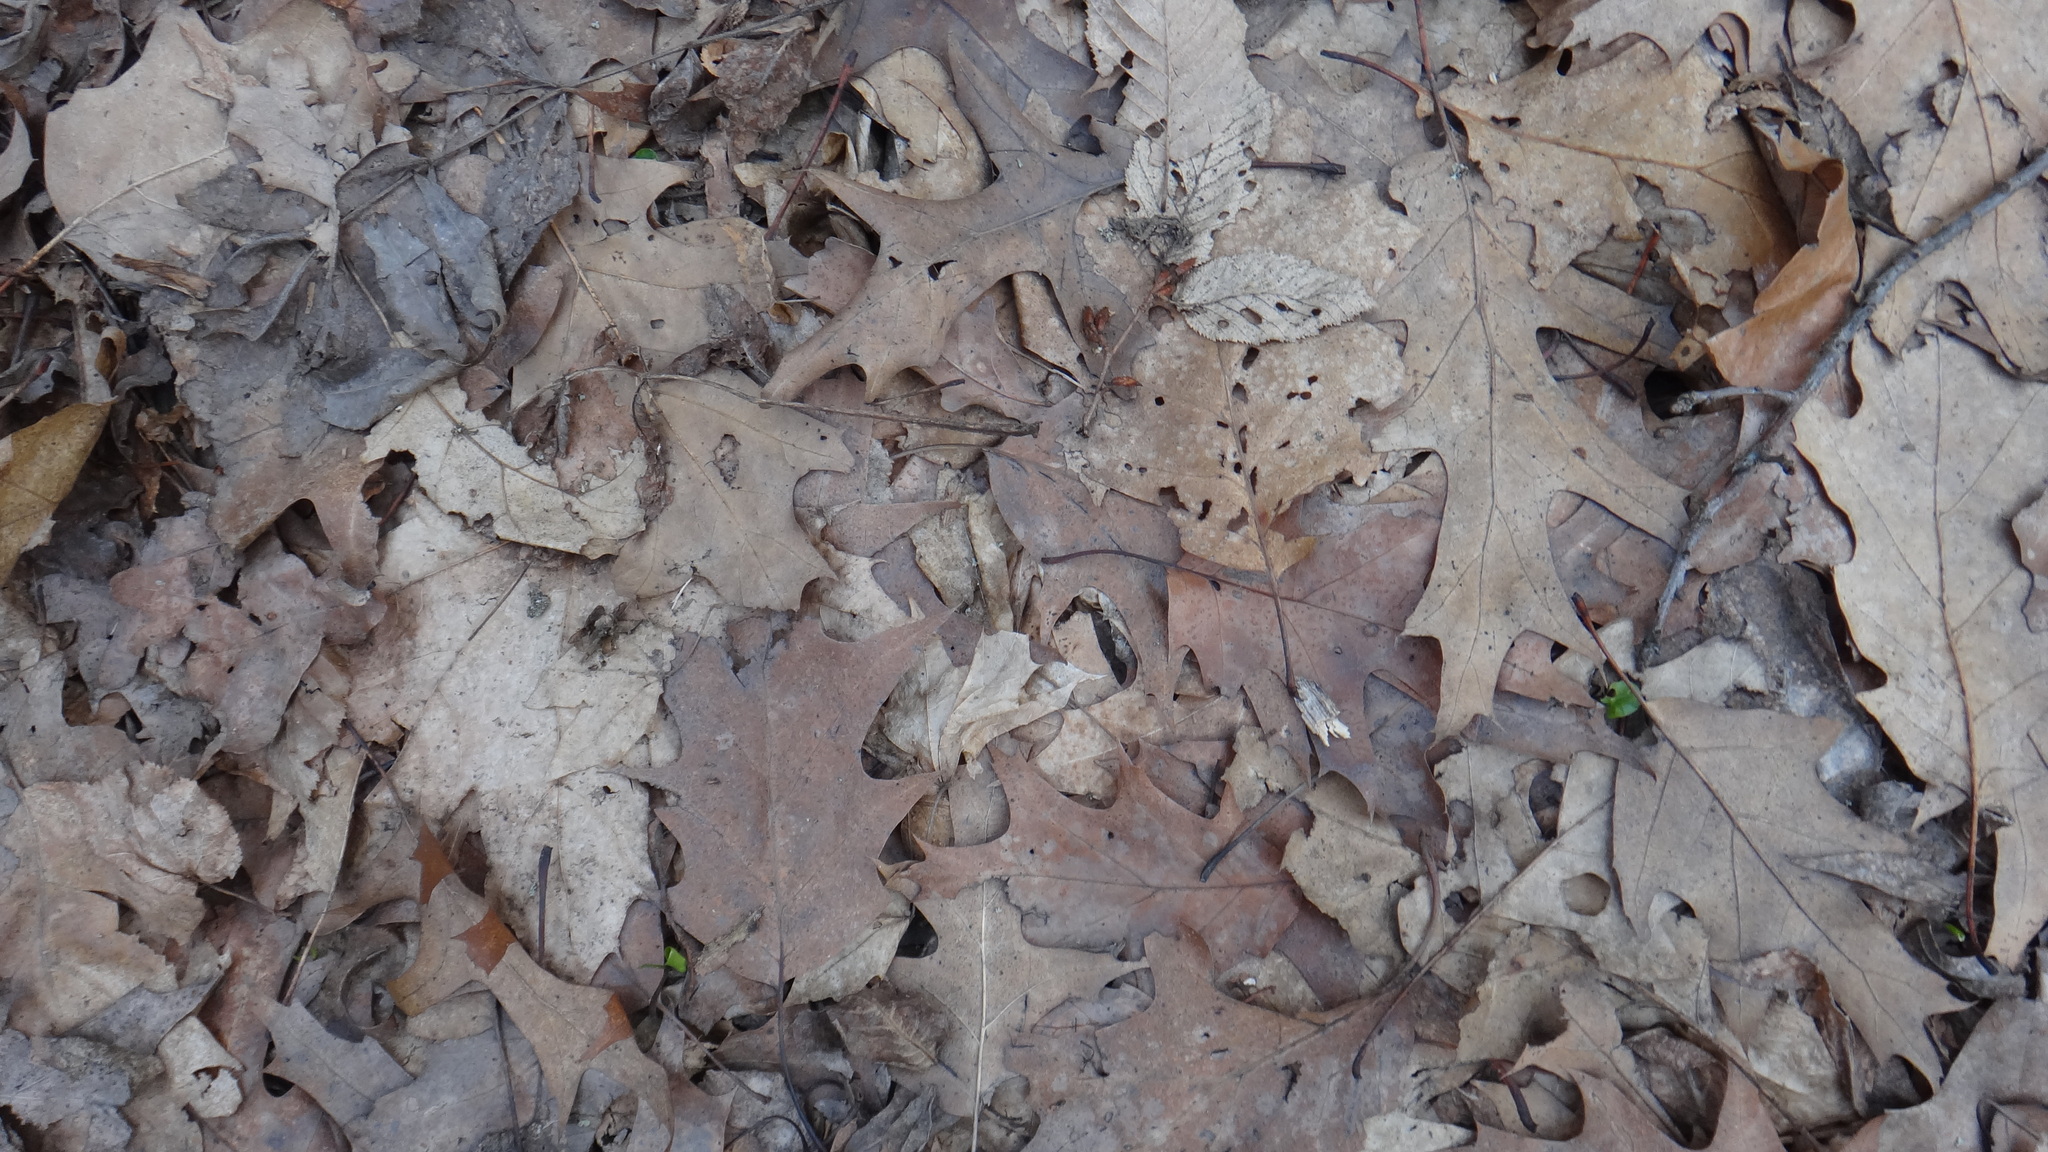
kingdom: Plantae
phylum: Tracheophyta
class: Magnoliopsida
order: Fagales
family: Fagaceae
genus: Quercus
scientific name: Quercus rubra
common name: Red oak
